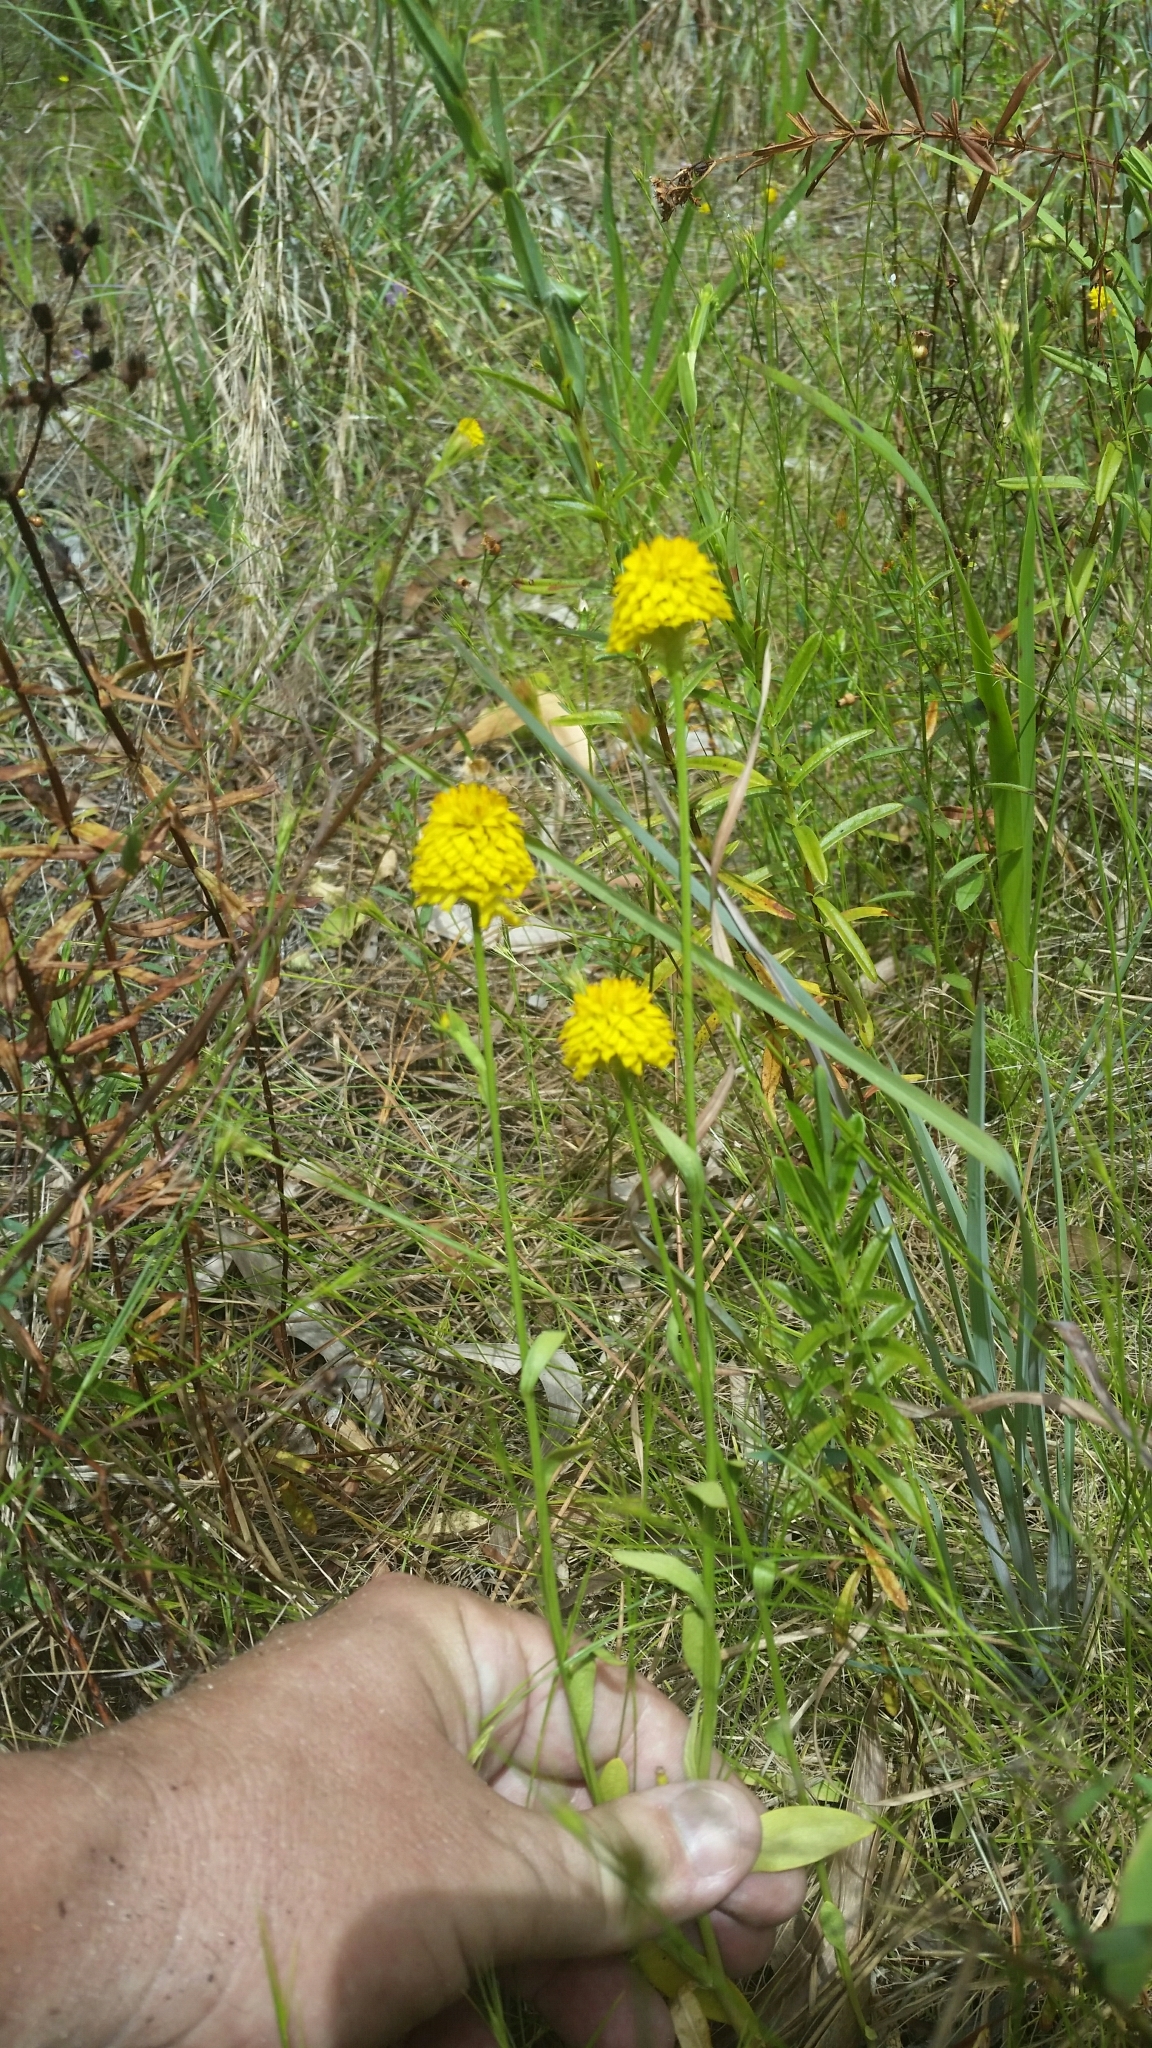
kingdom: Plantae
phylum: Tracheophyta
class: Magnoliopsida
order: Fabales
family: Polygalaceae
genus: Polygala
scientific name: Polygala rugelii
